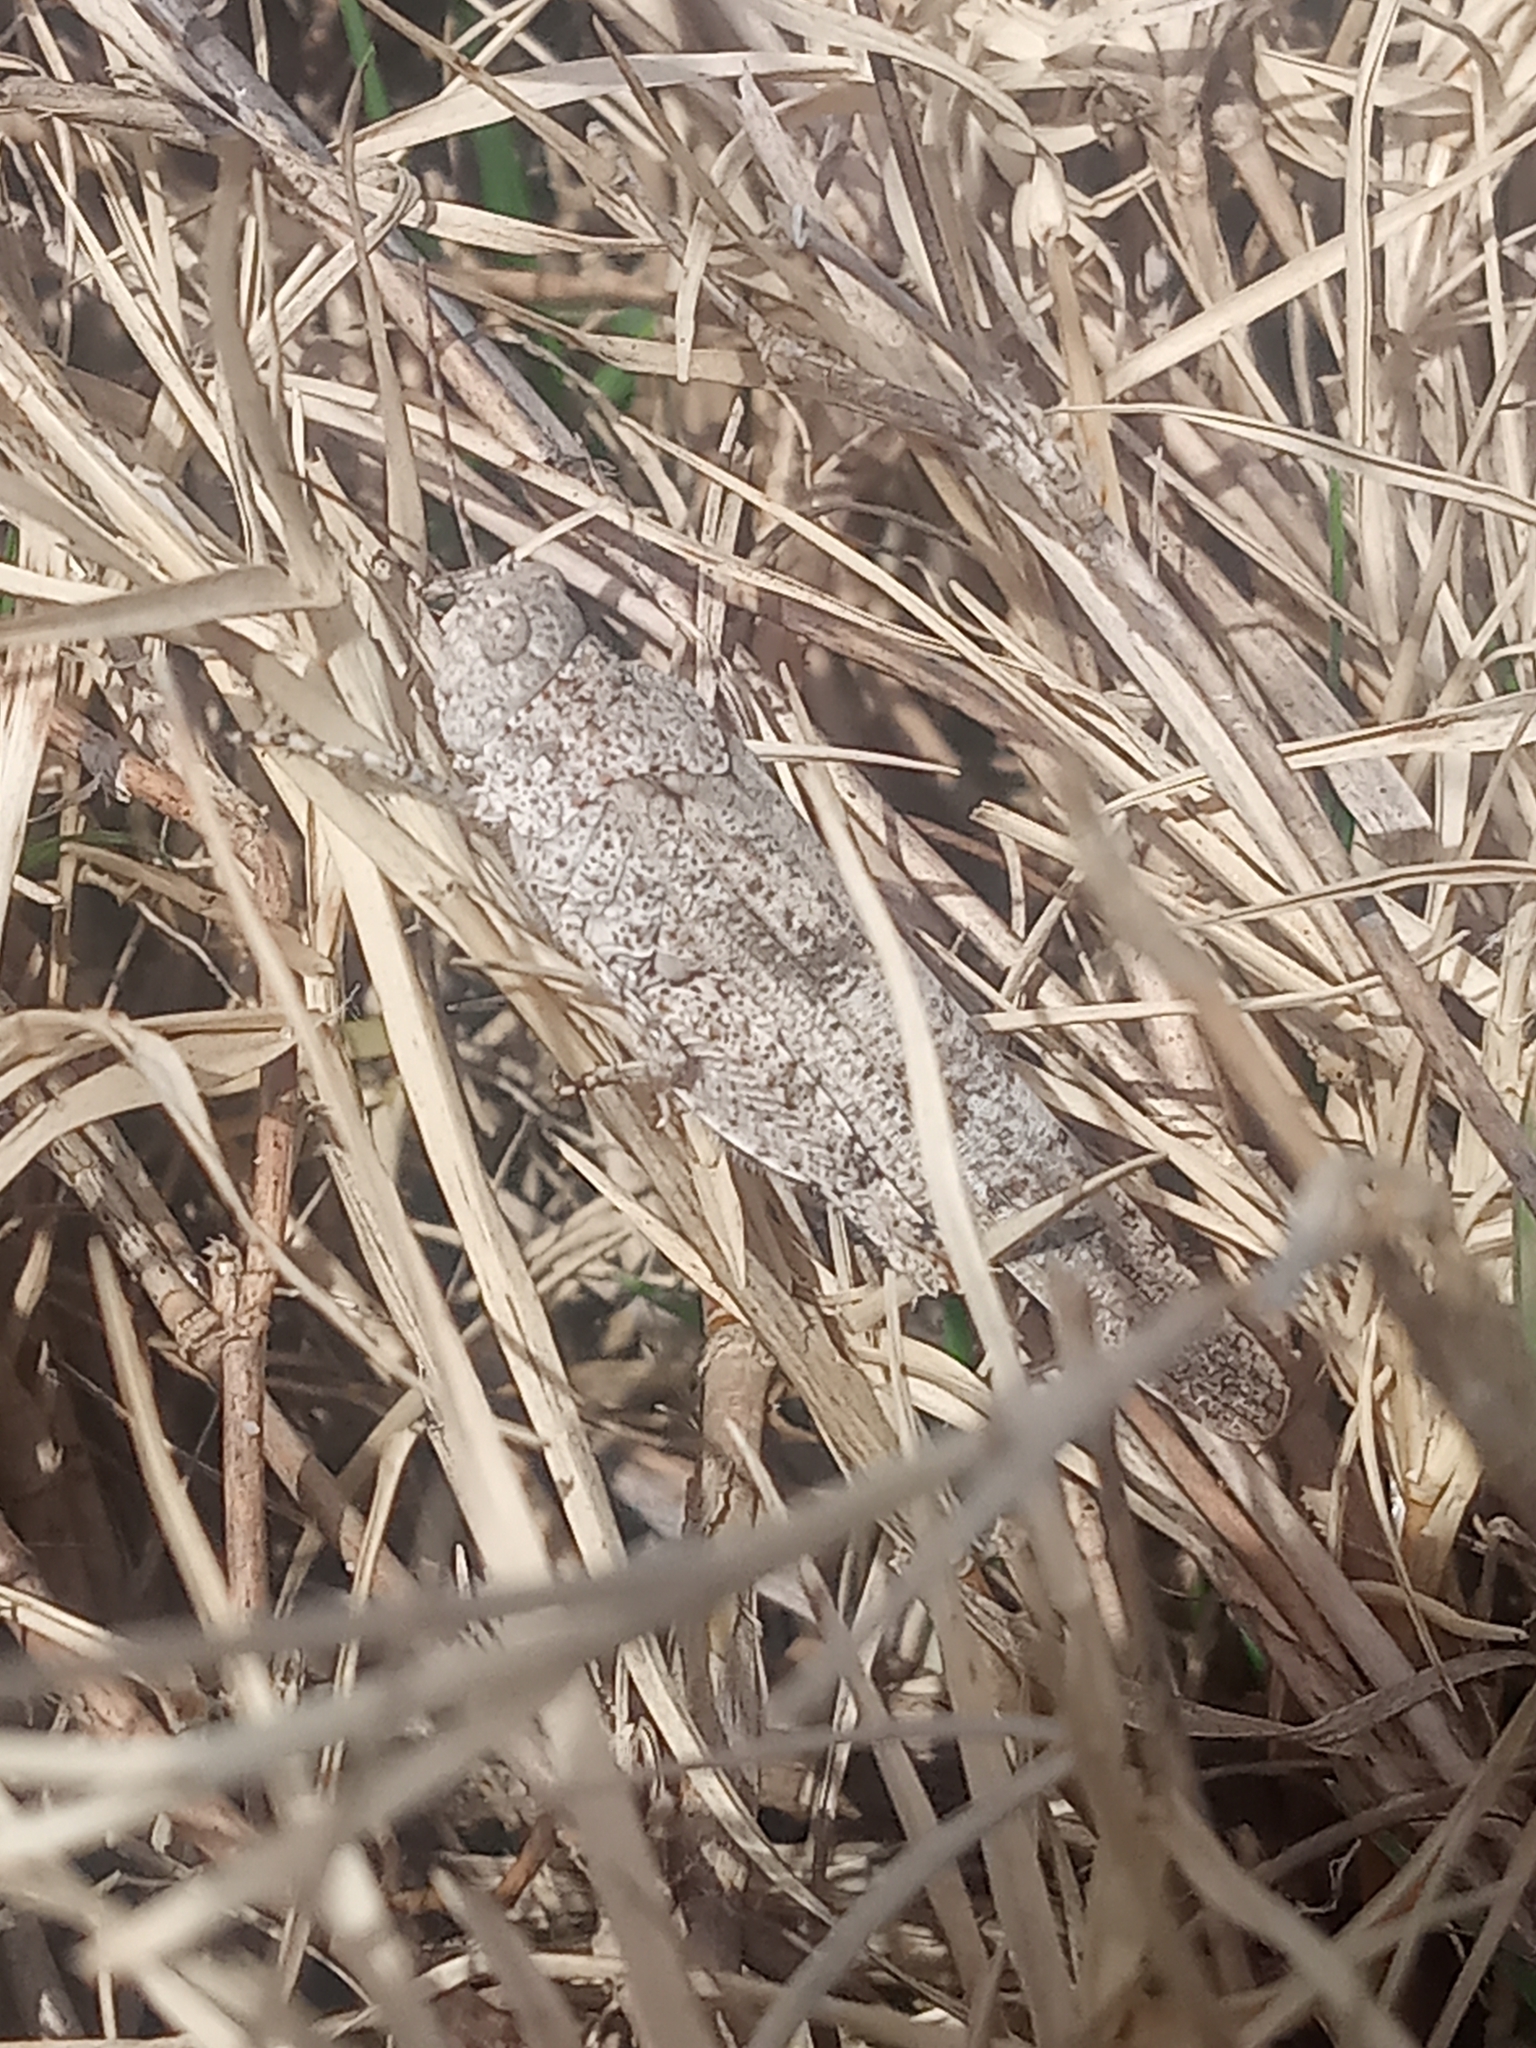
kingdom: Animalia
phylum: Arthropoda
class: Insecta
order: Orthoptera
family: Acrididae
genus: Trimerotropis
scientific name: Trimerotropis maritima
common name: Seaside locust
